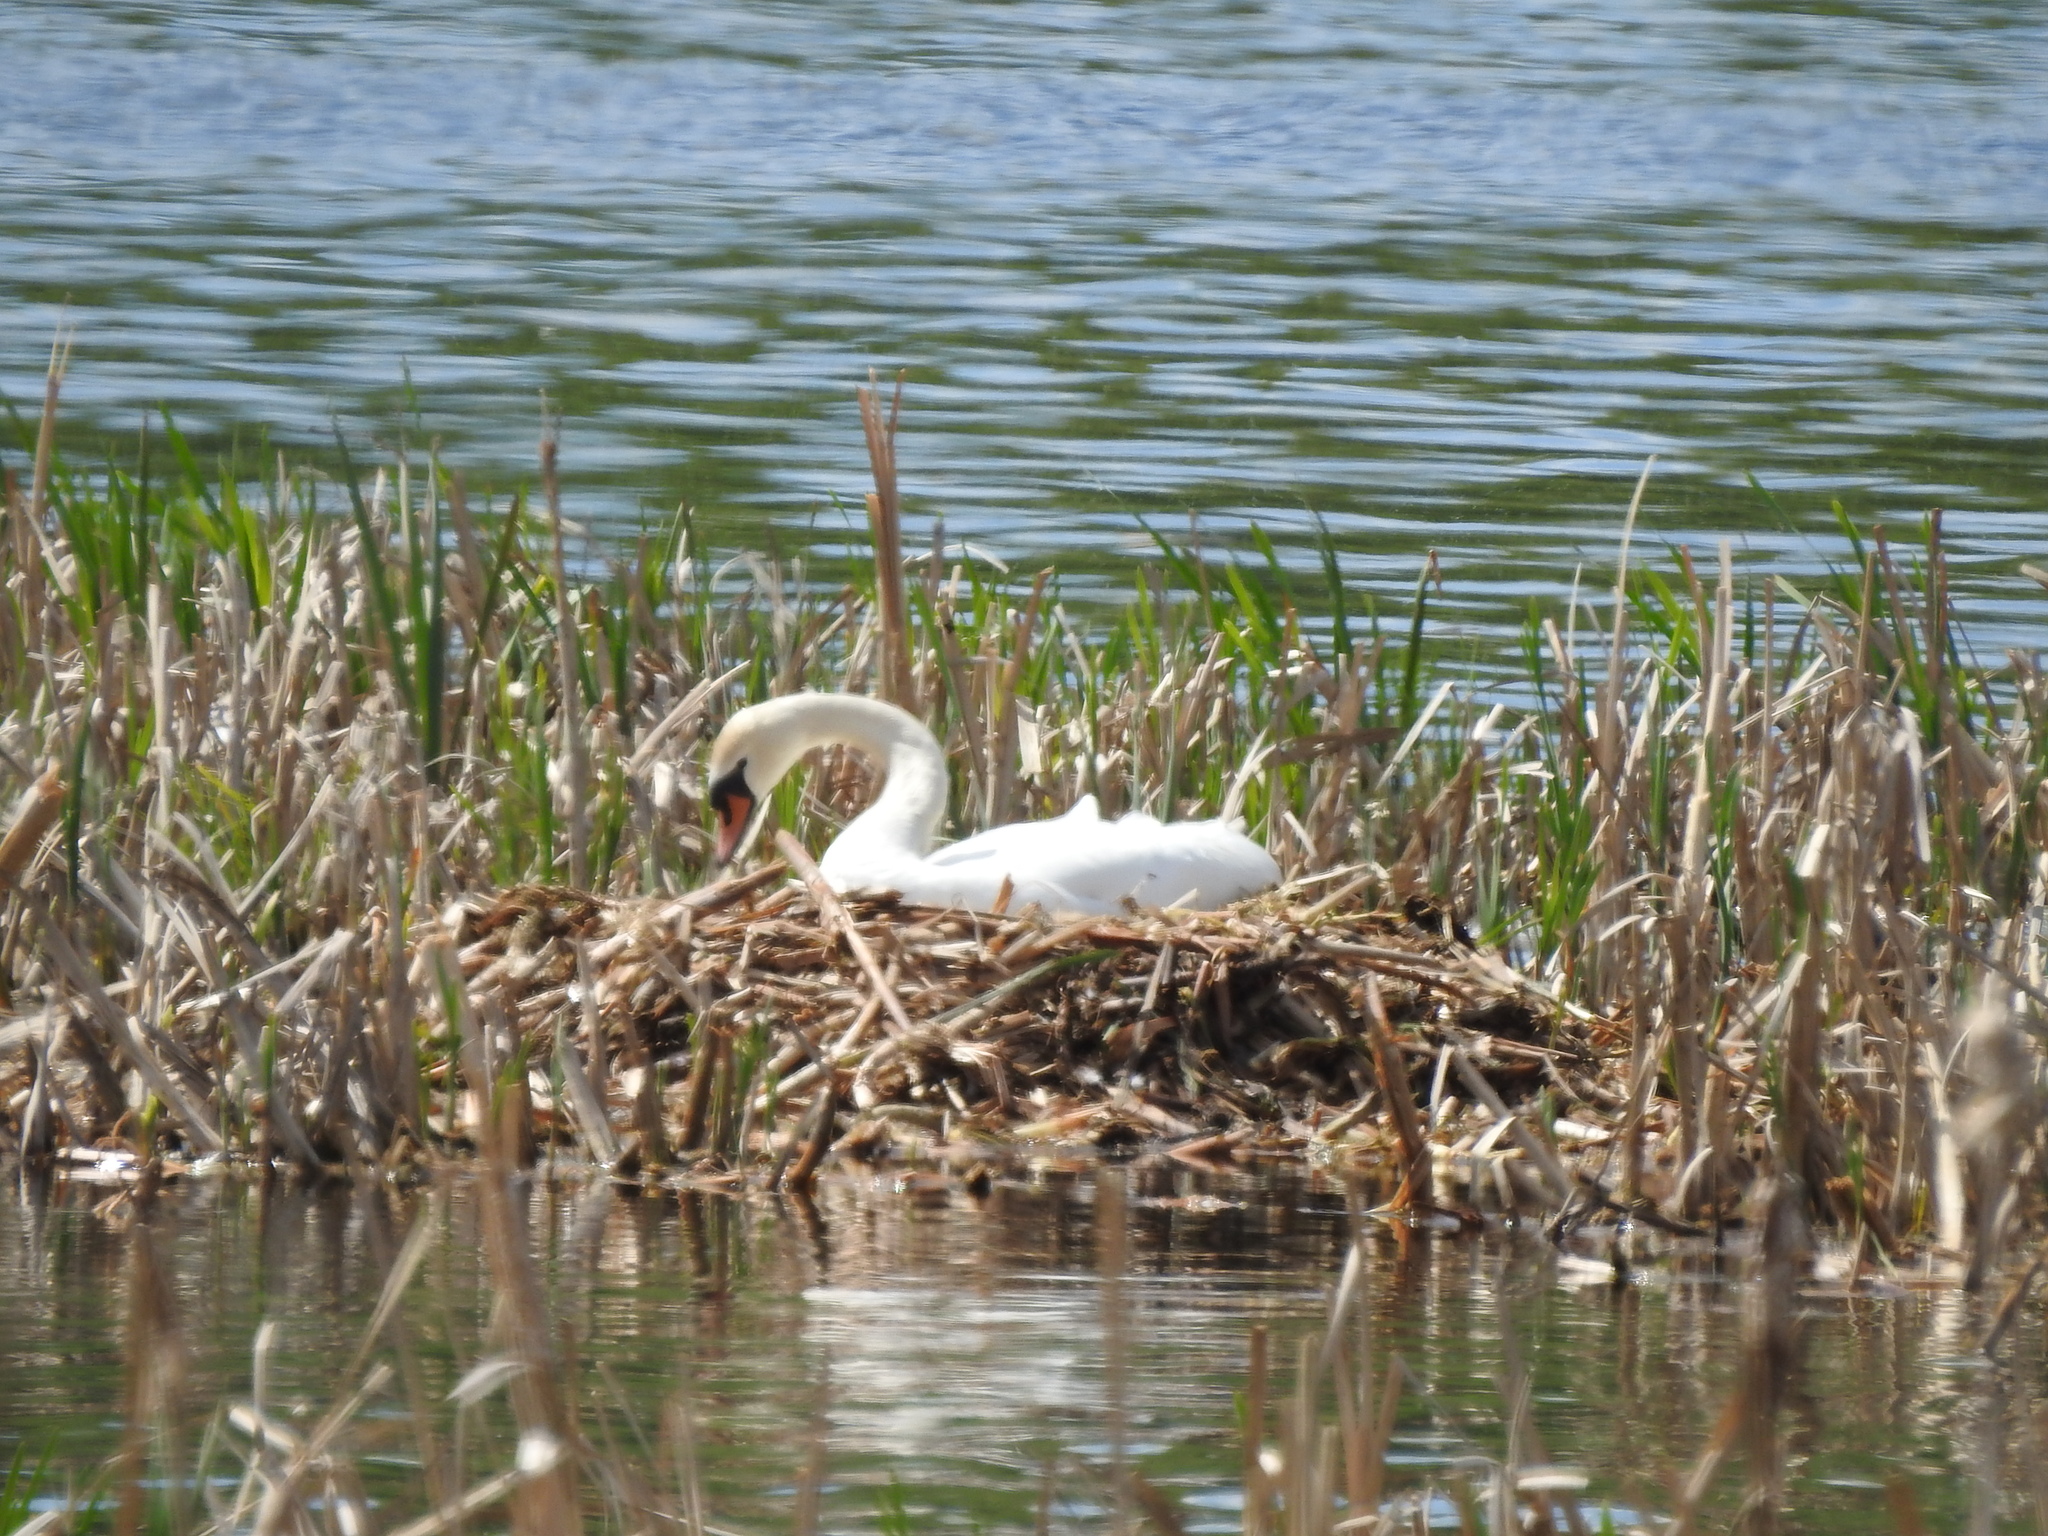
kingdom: Animalia
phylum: Chordata
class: Aves
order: Anseriformes
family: Anatidae
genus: Cygnus
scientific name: Cygnus olor
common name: Mute swan
